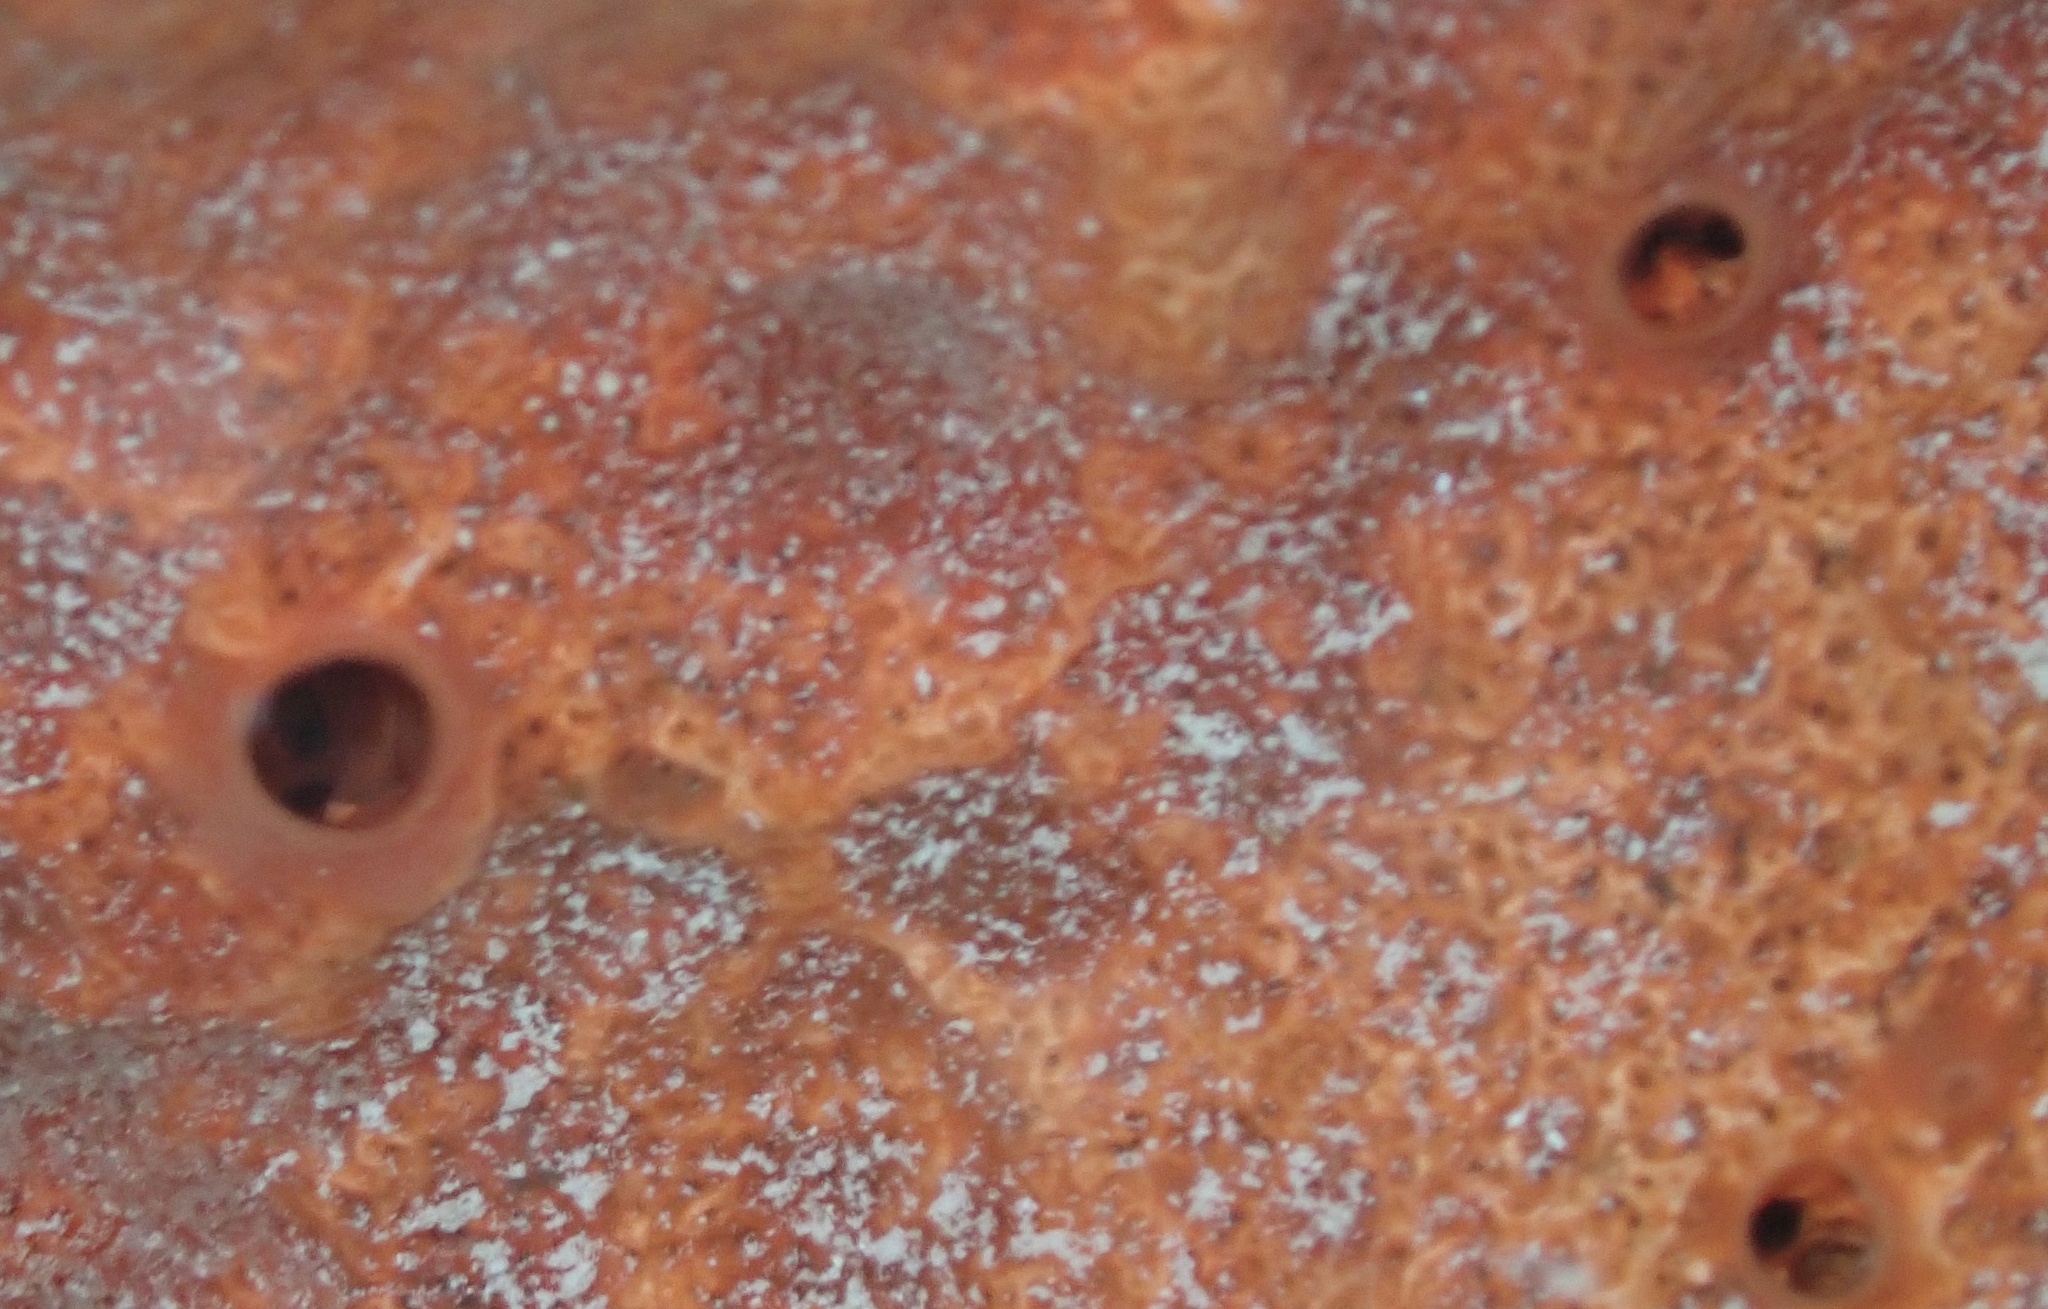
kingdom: Animalia
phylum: Porifera
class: Demospongiae
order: Clionaida
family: Clionaidae
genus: Pione
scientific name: Pione lampa
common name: Red boring sponge
